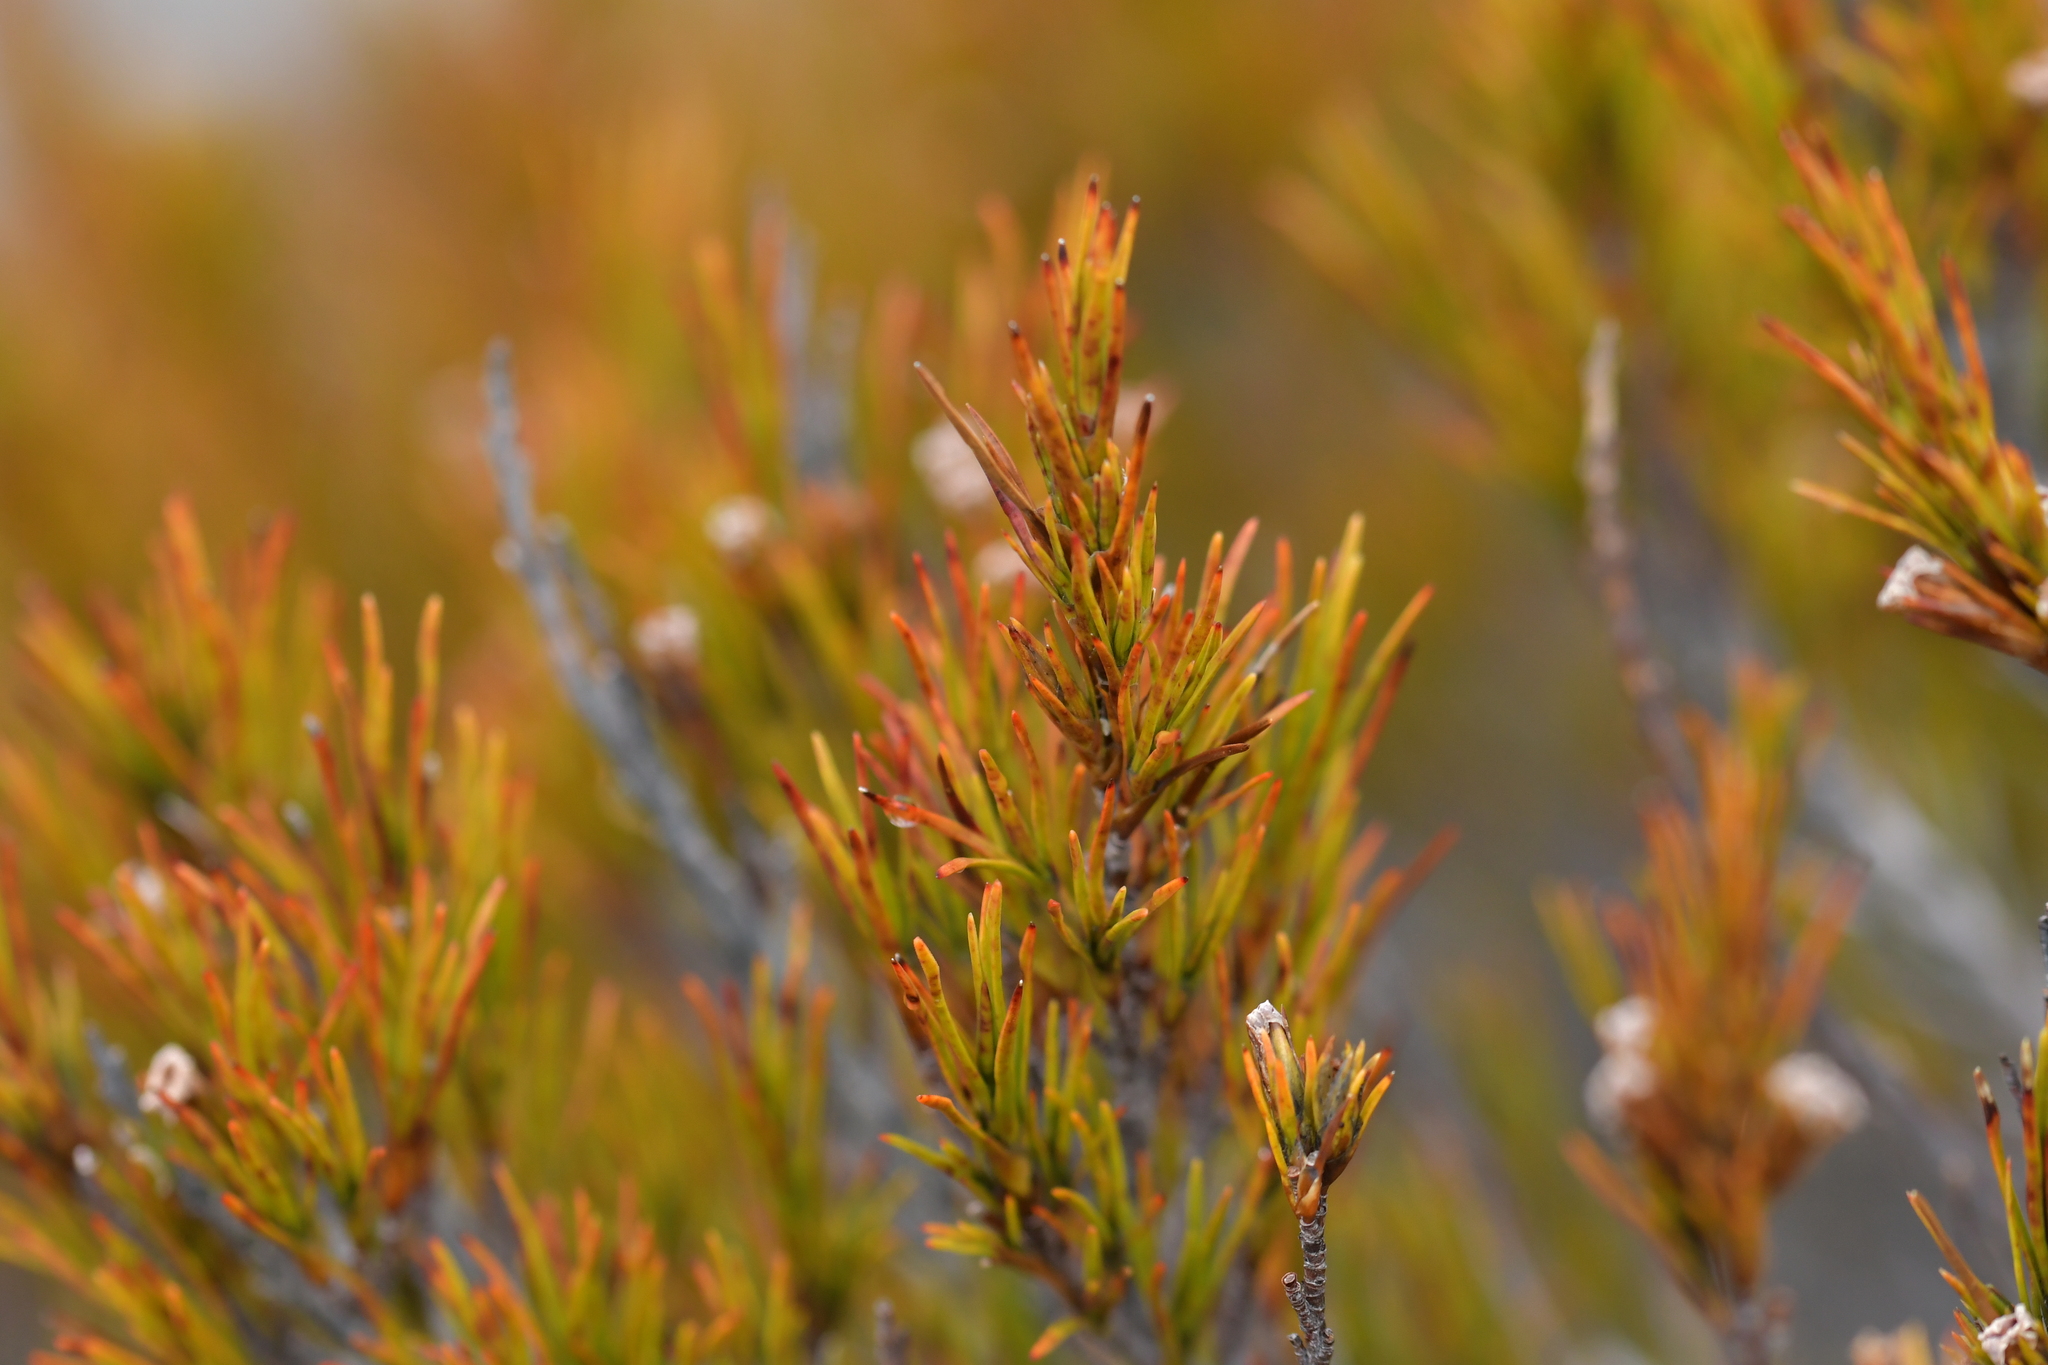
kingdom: Plantae
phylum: Tracheophyta
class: Magnoliopsida
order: Ericales
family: Ericaceae
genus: Dracophyllum
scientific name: Dracophyllum rosmarinifolium
